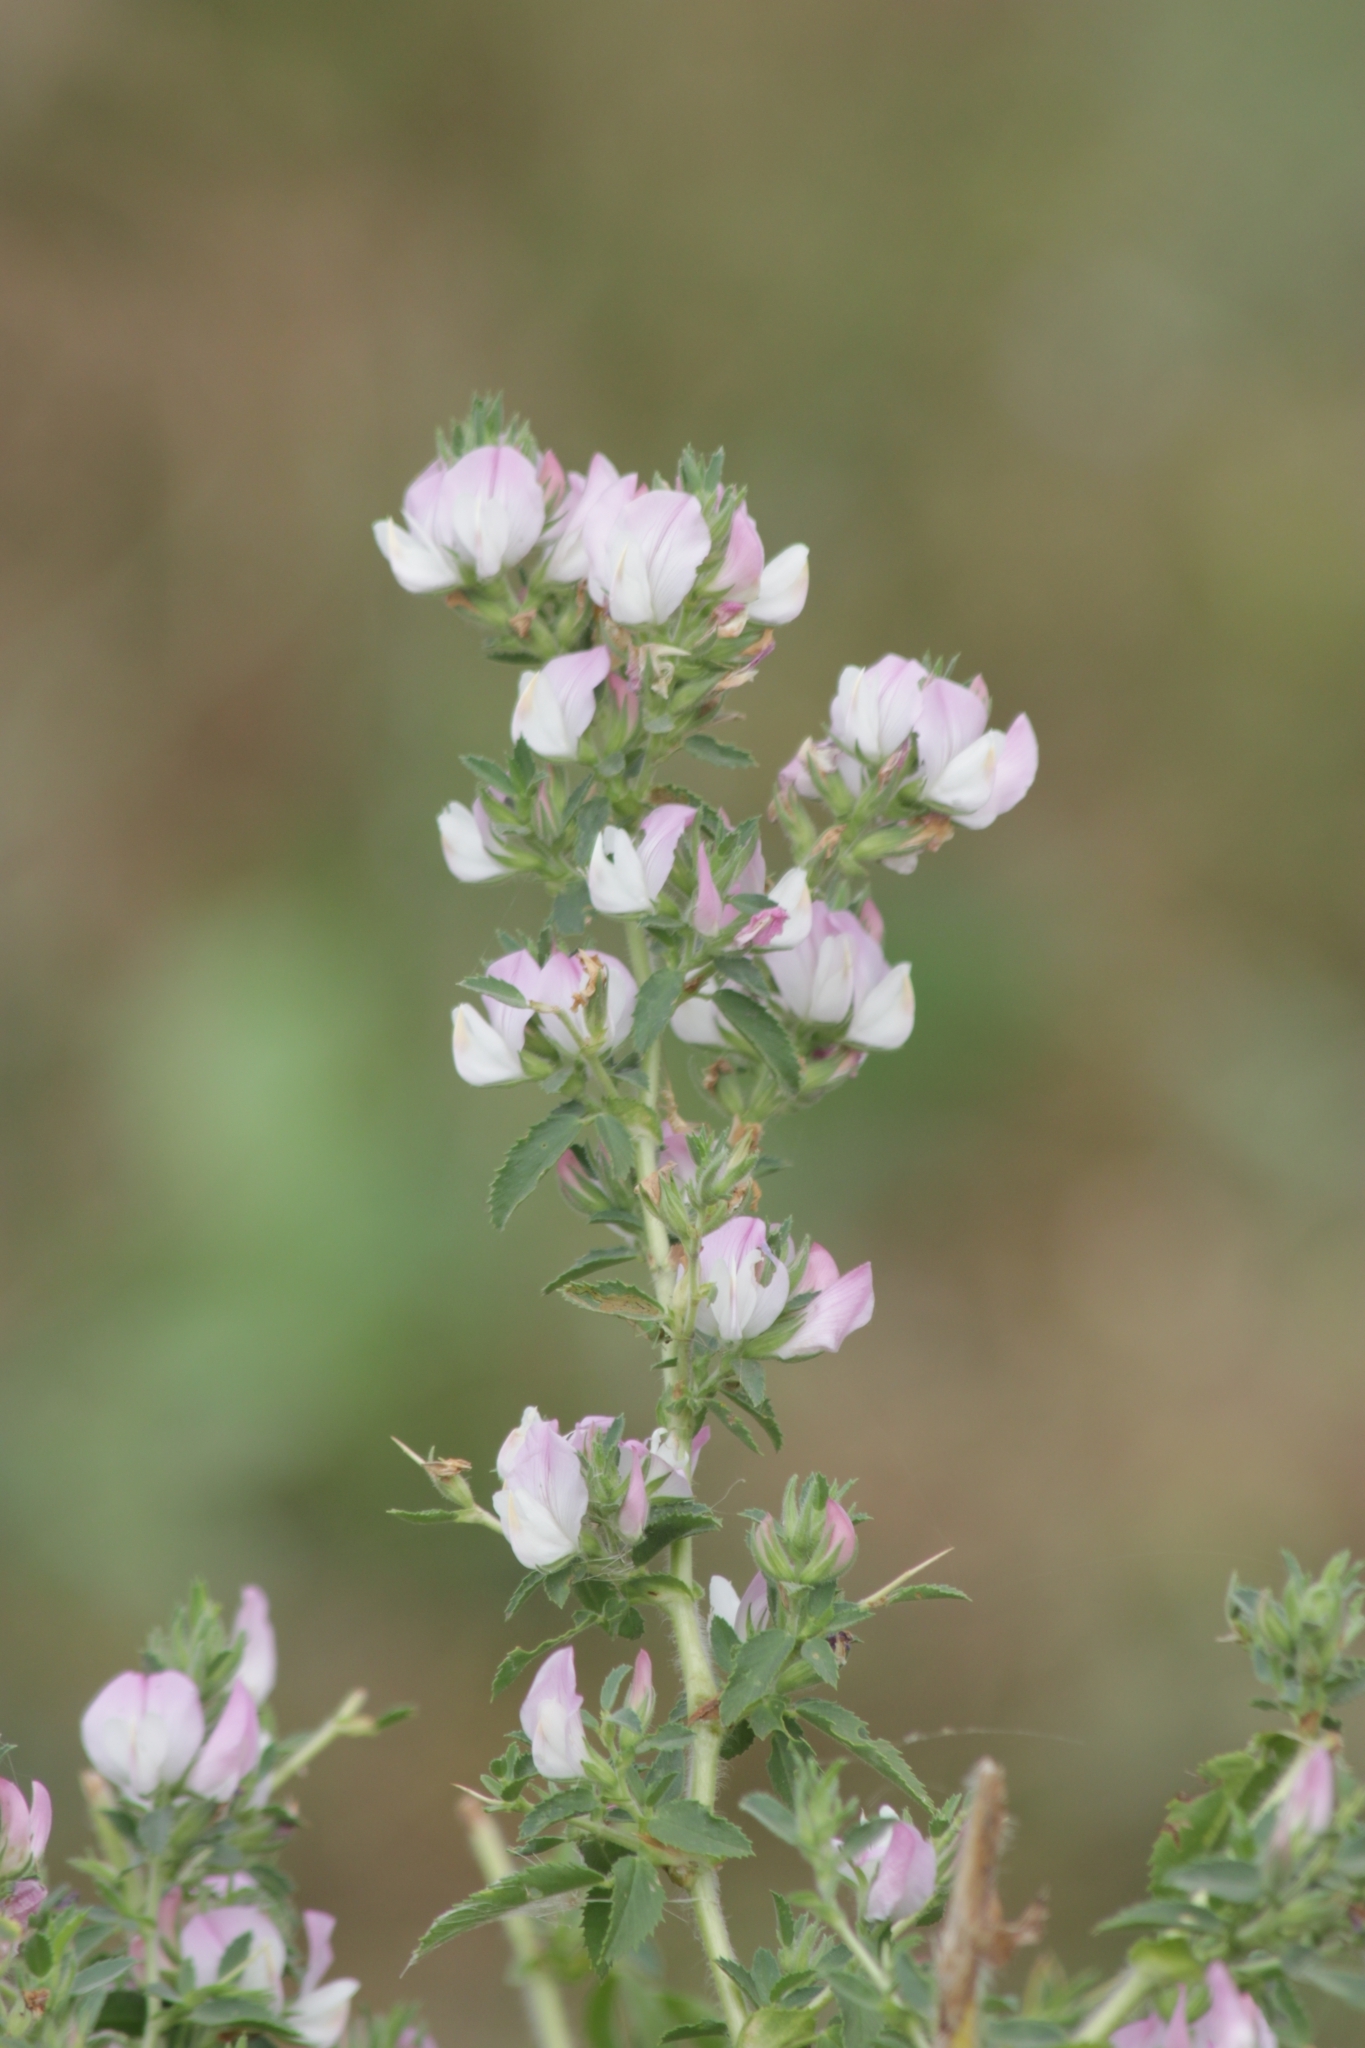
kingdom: Plantae
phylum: Tracheophyta
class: Magnoliopsida
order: Fabales
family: Fabaceae
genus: Ononis
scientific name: Ononis spinosa
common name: Spiny restharrow
